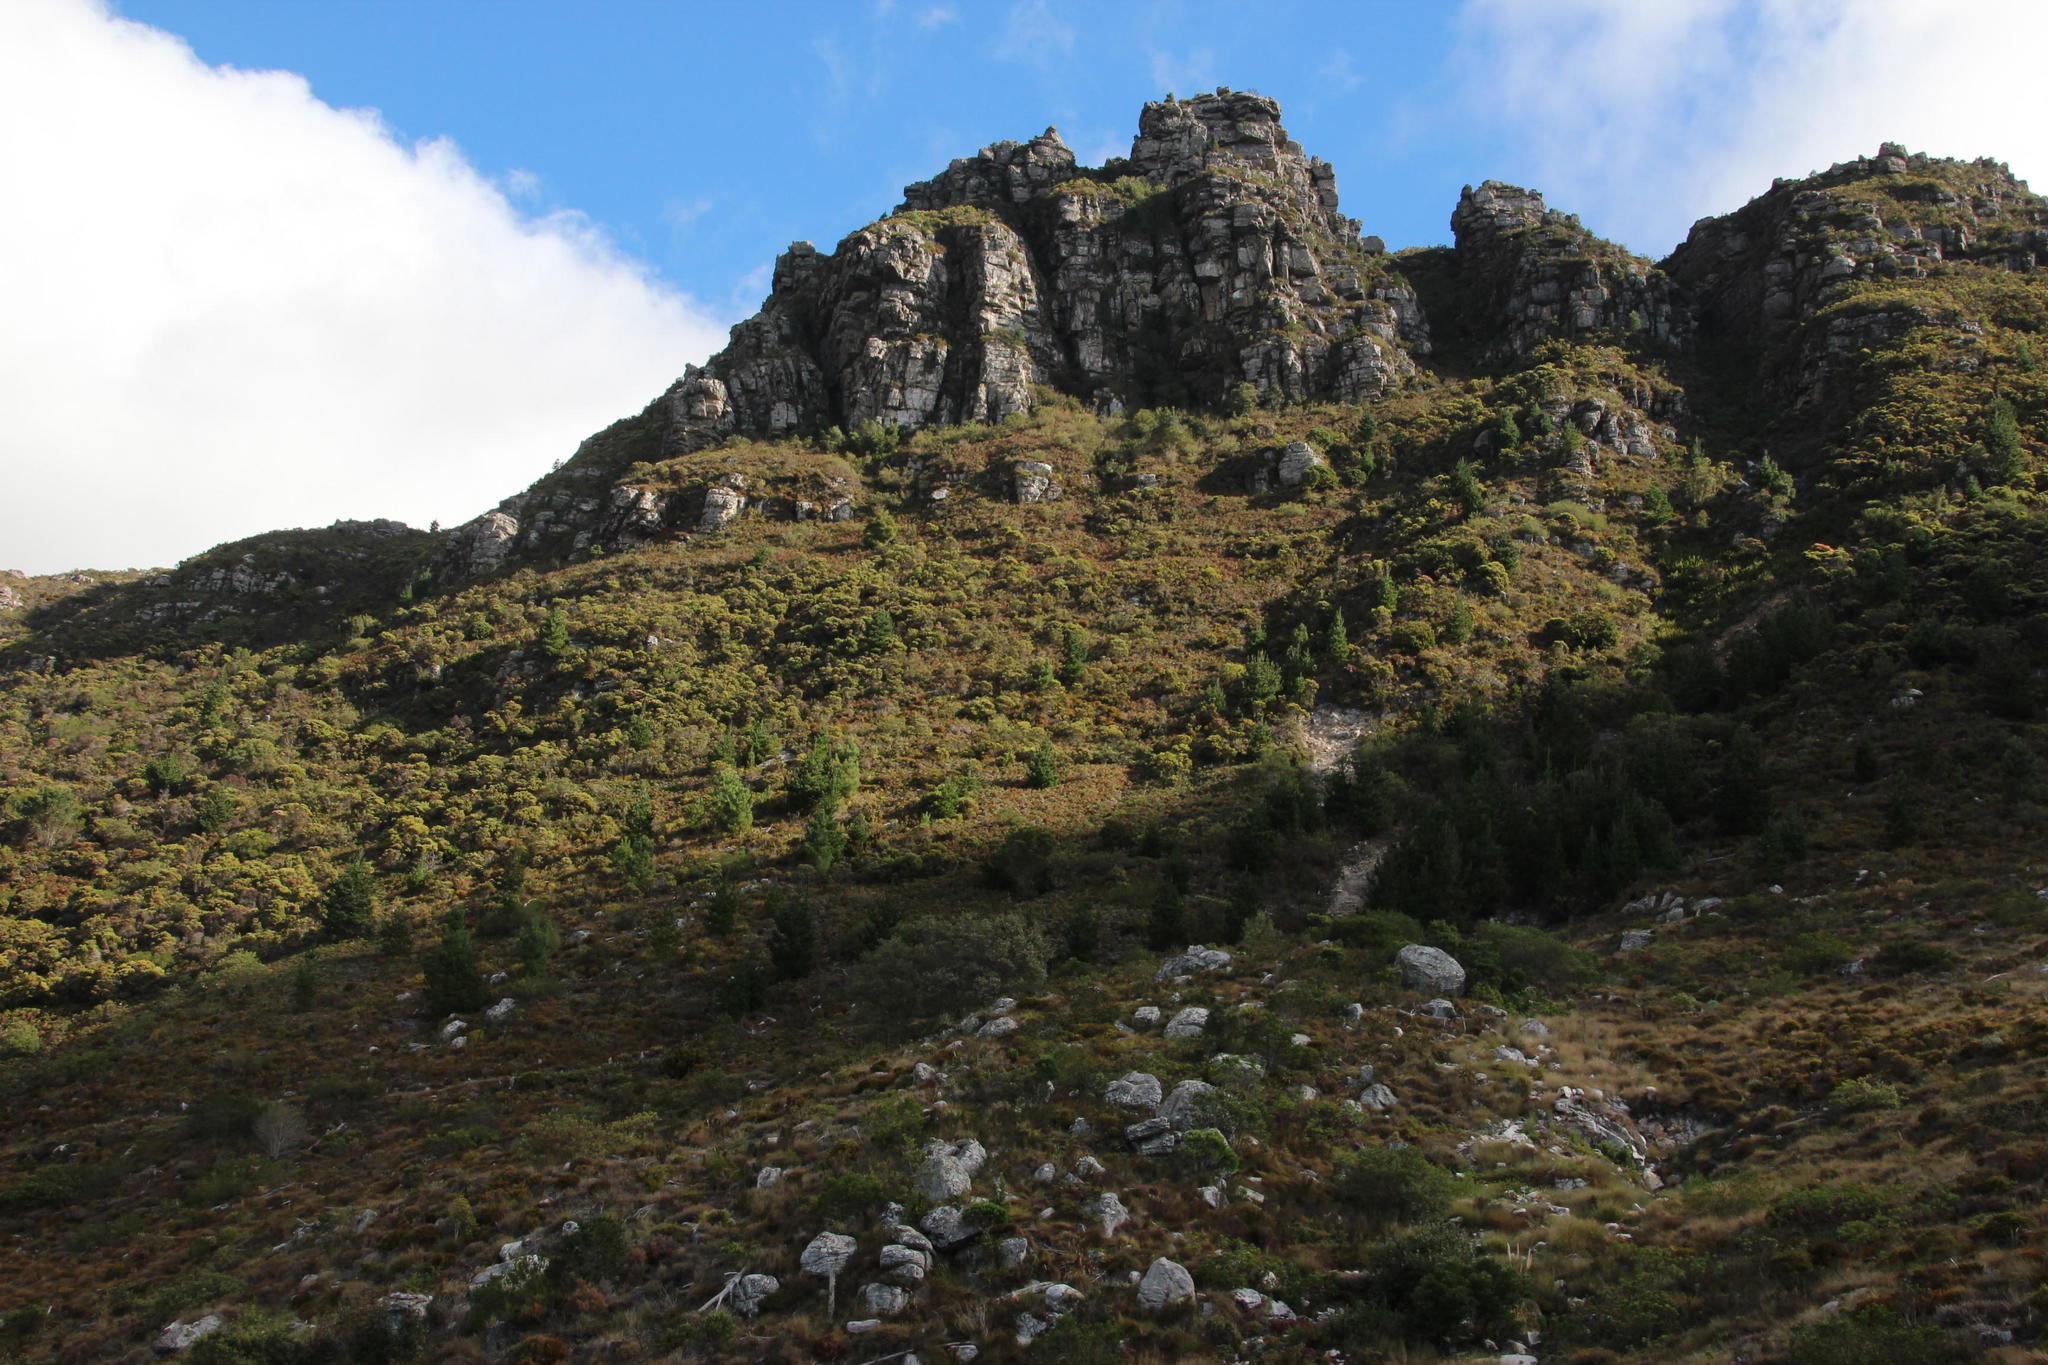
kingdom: Plantae
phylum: Tracheophyta
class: Pinopsida
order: Pinales
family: Pinaceae
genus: Pinus
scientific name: Pinus pinaster
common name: Maritime pine
